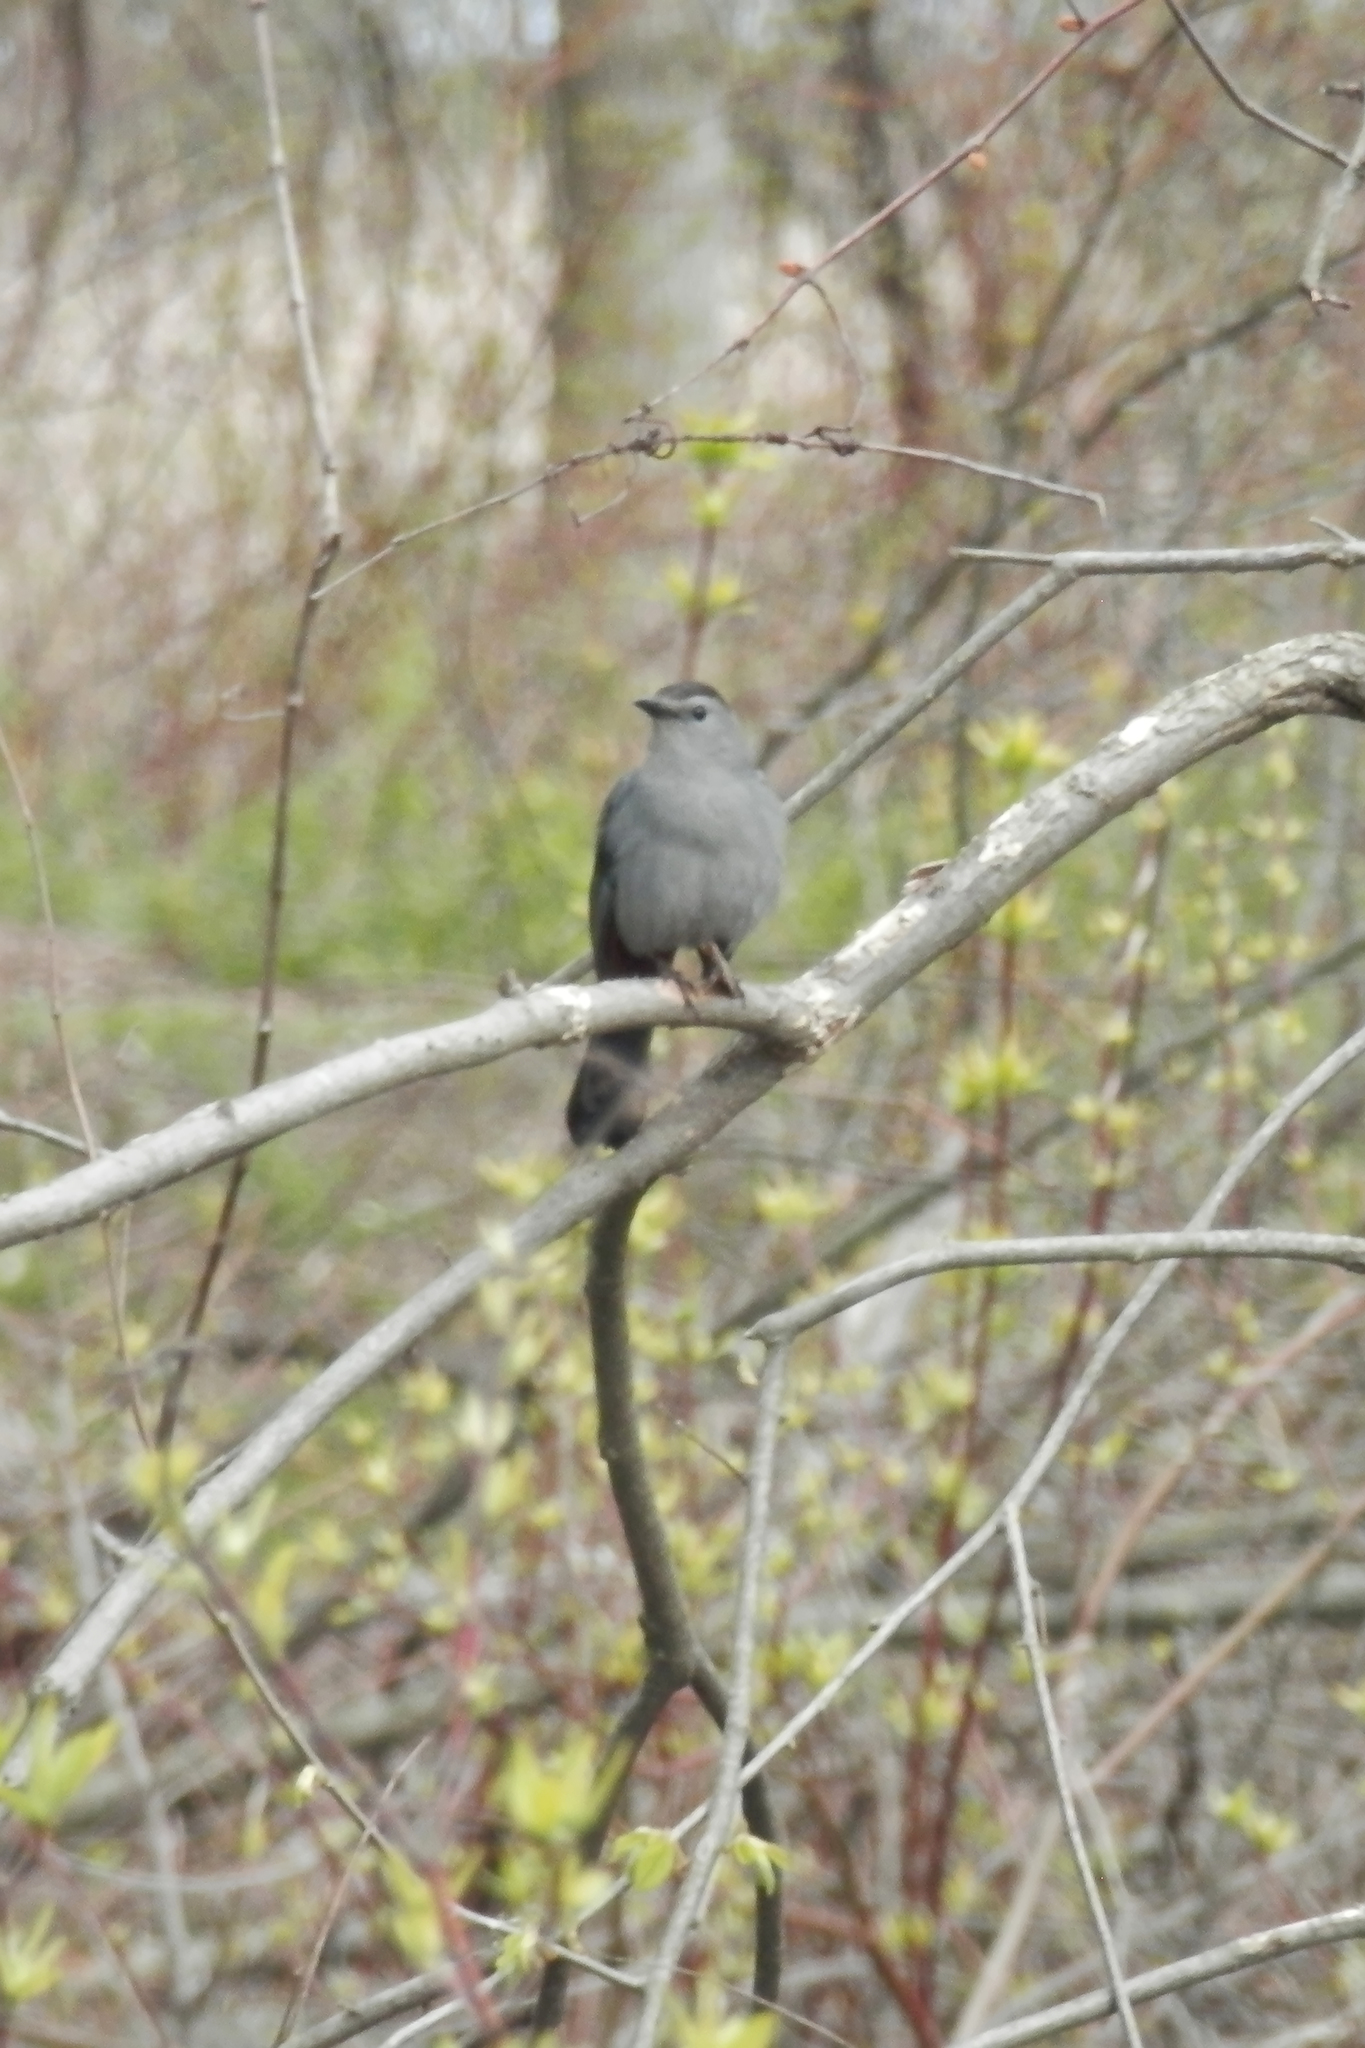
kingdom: Animalia
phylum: Chordata
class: Aves
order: Passeriformes
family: Mimidae
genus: Dumetella
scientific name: Dumetella carolinensis
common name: Gray catbird
